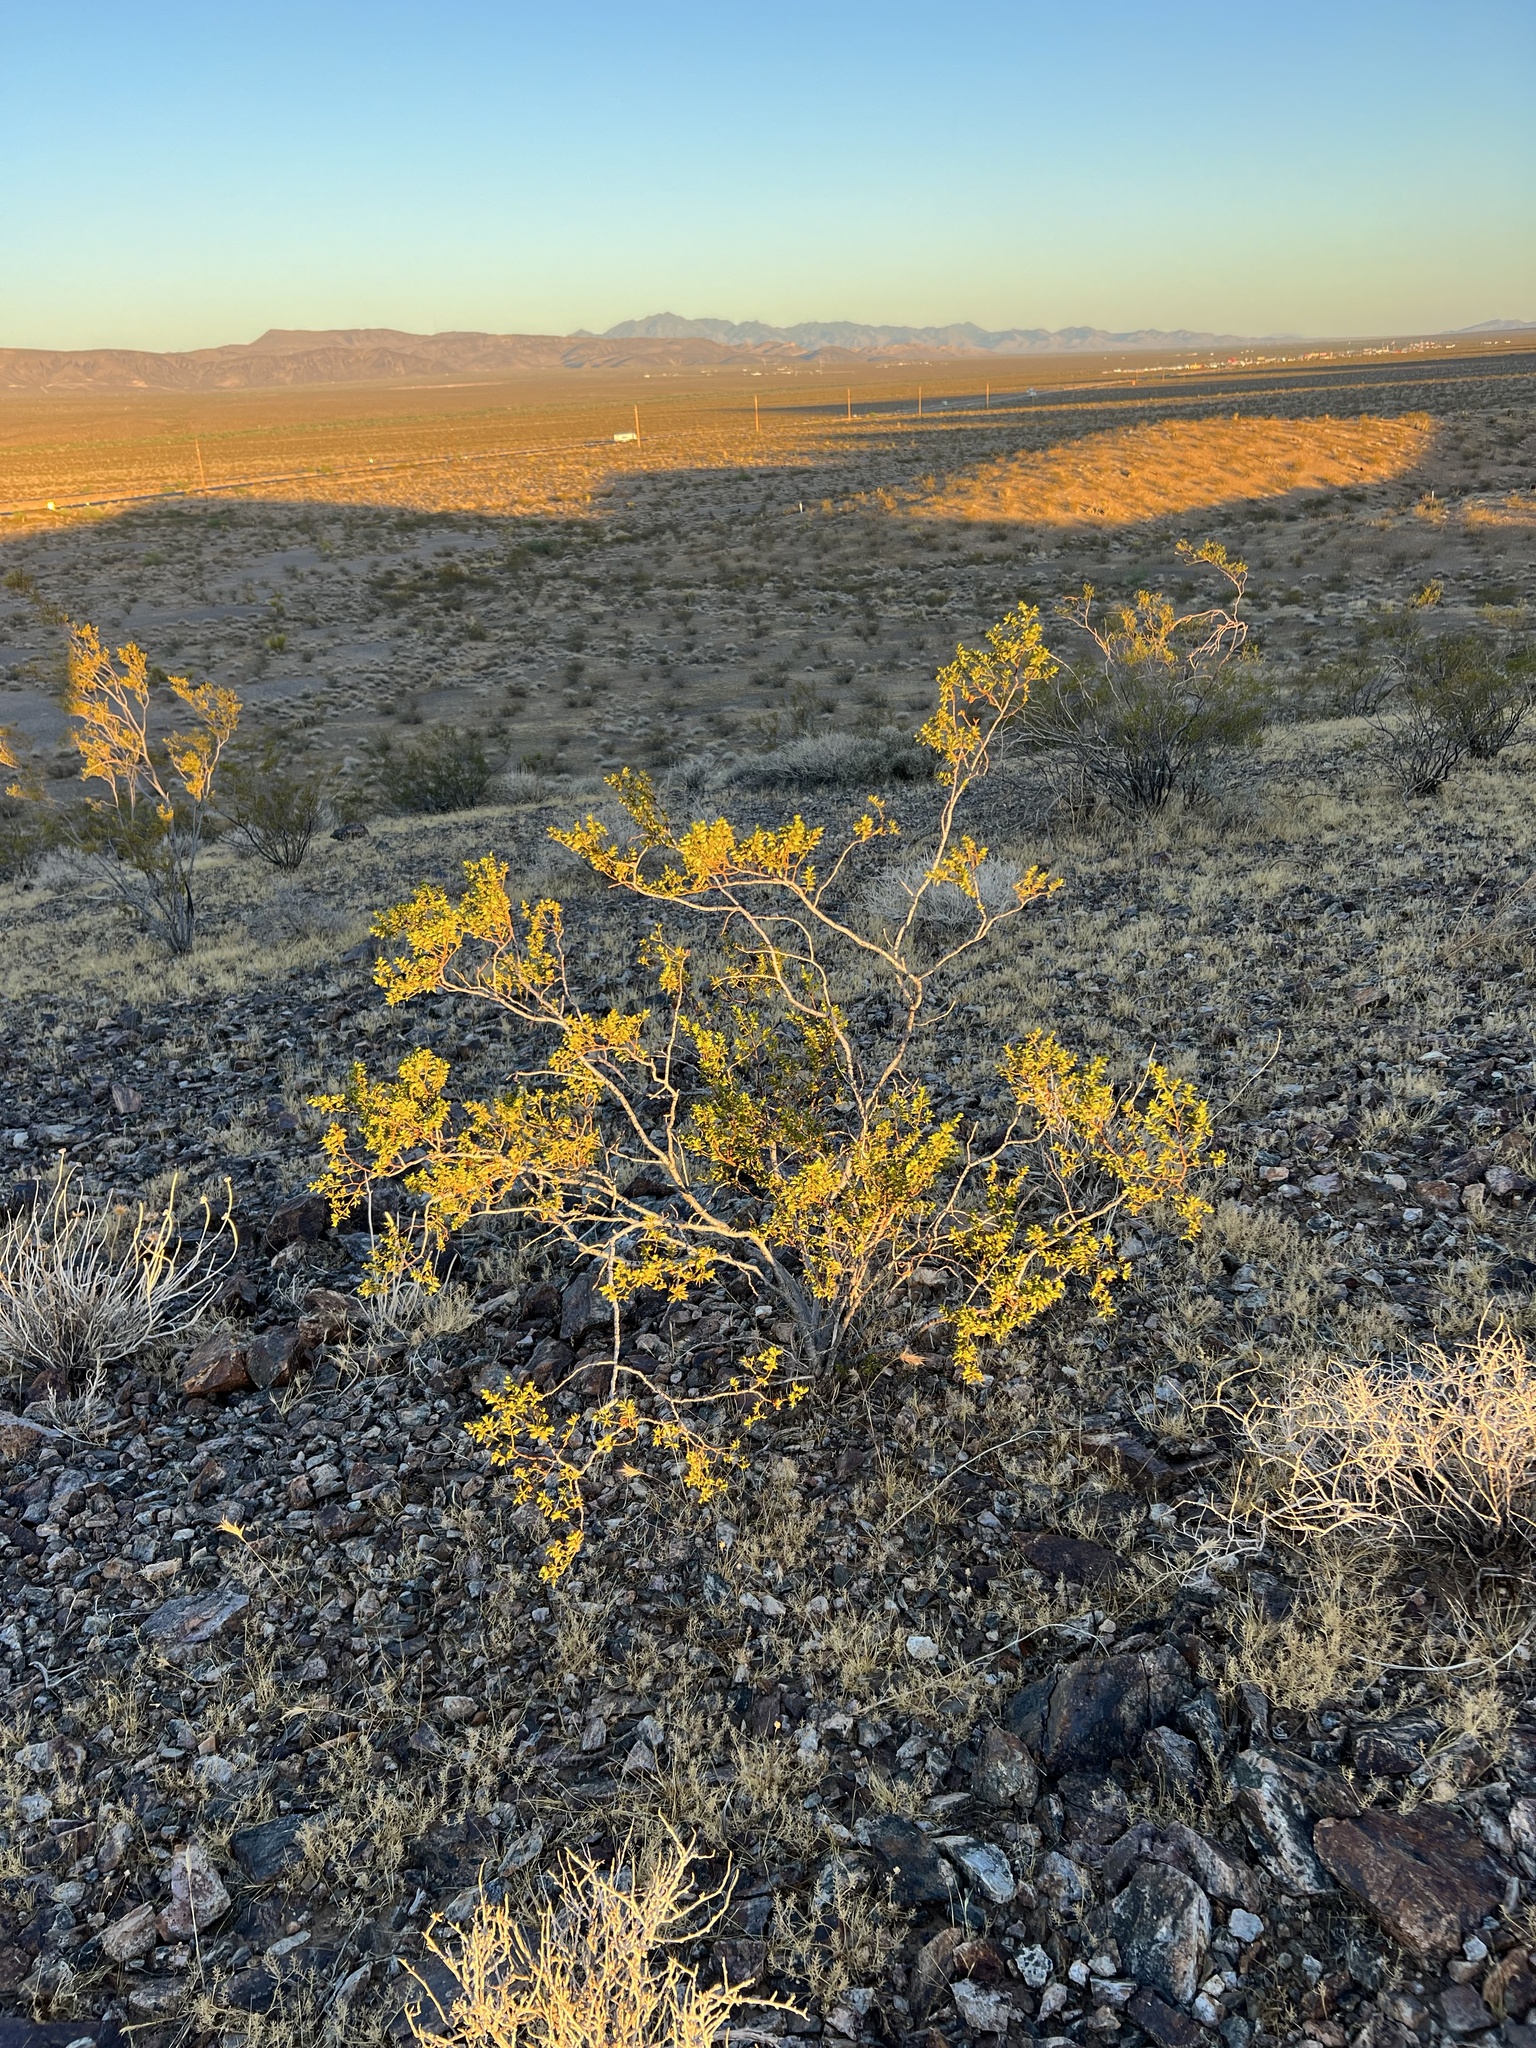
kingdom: Plantae
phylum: Tracheophyta
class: Magnoliopsida
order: Zygophyllales
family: Zygophyllaceae
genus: Larrea
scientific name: Larrea tridentata
